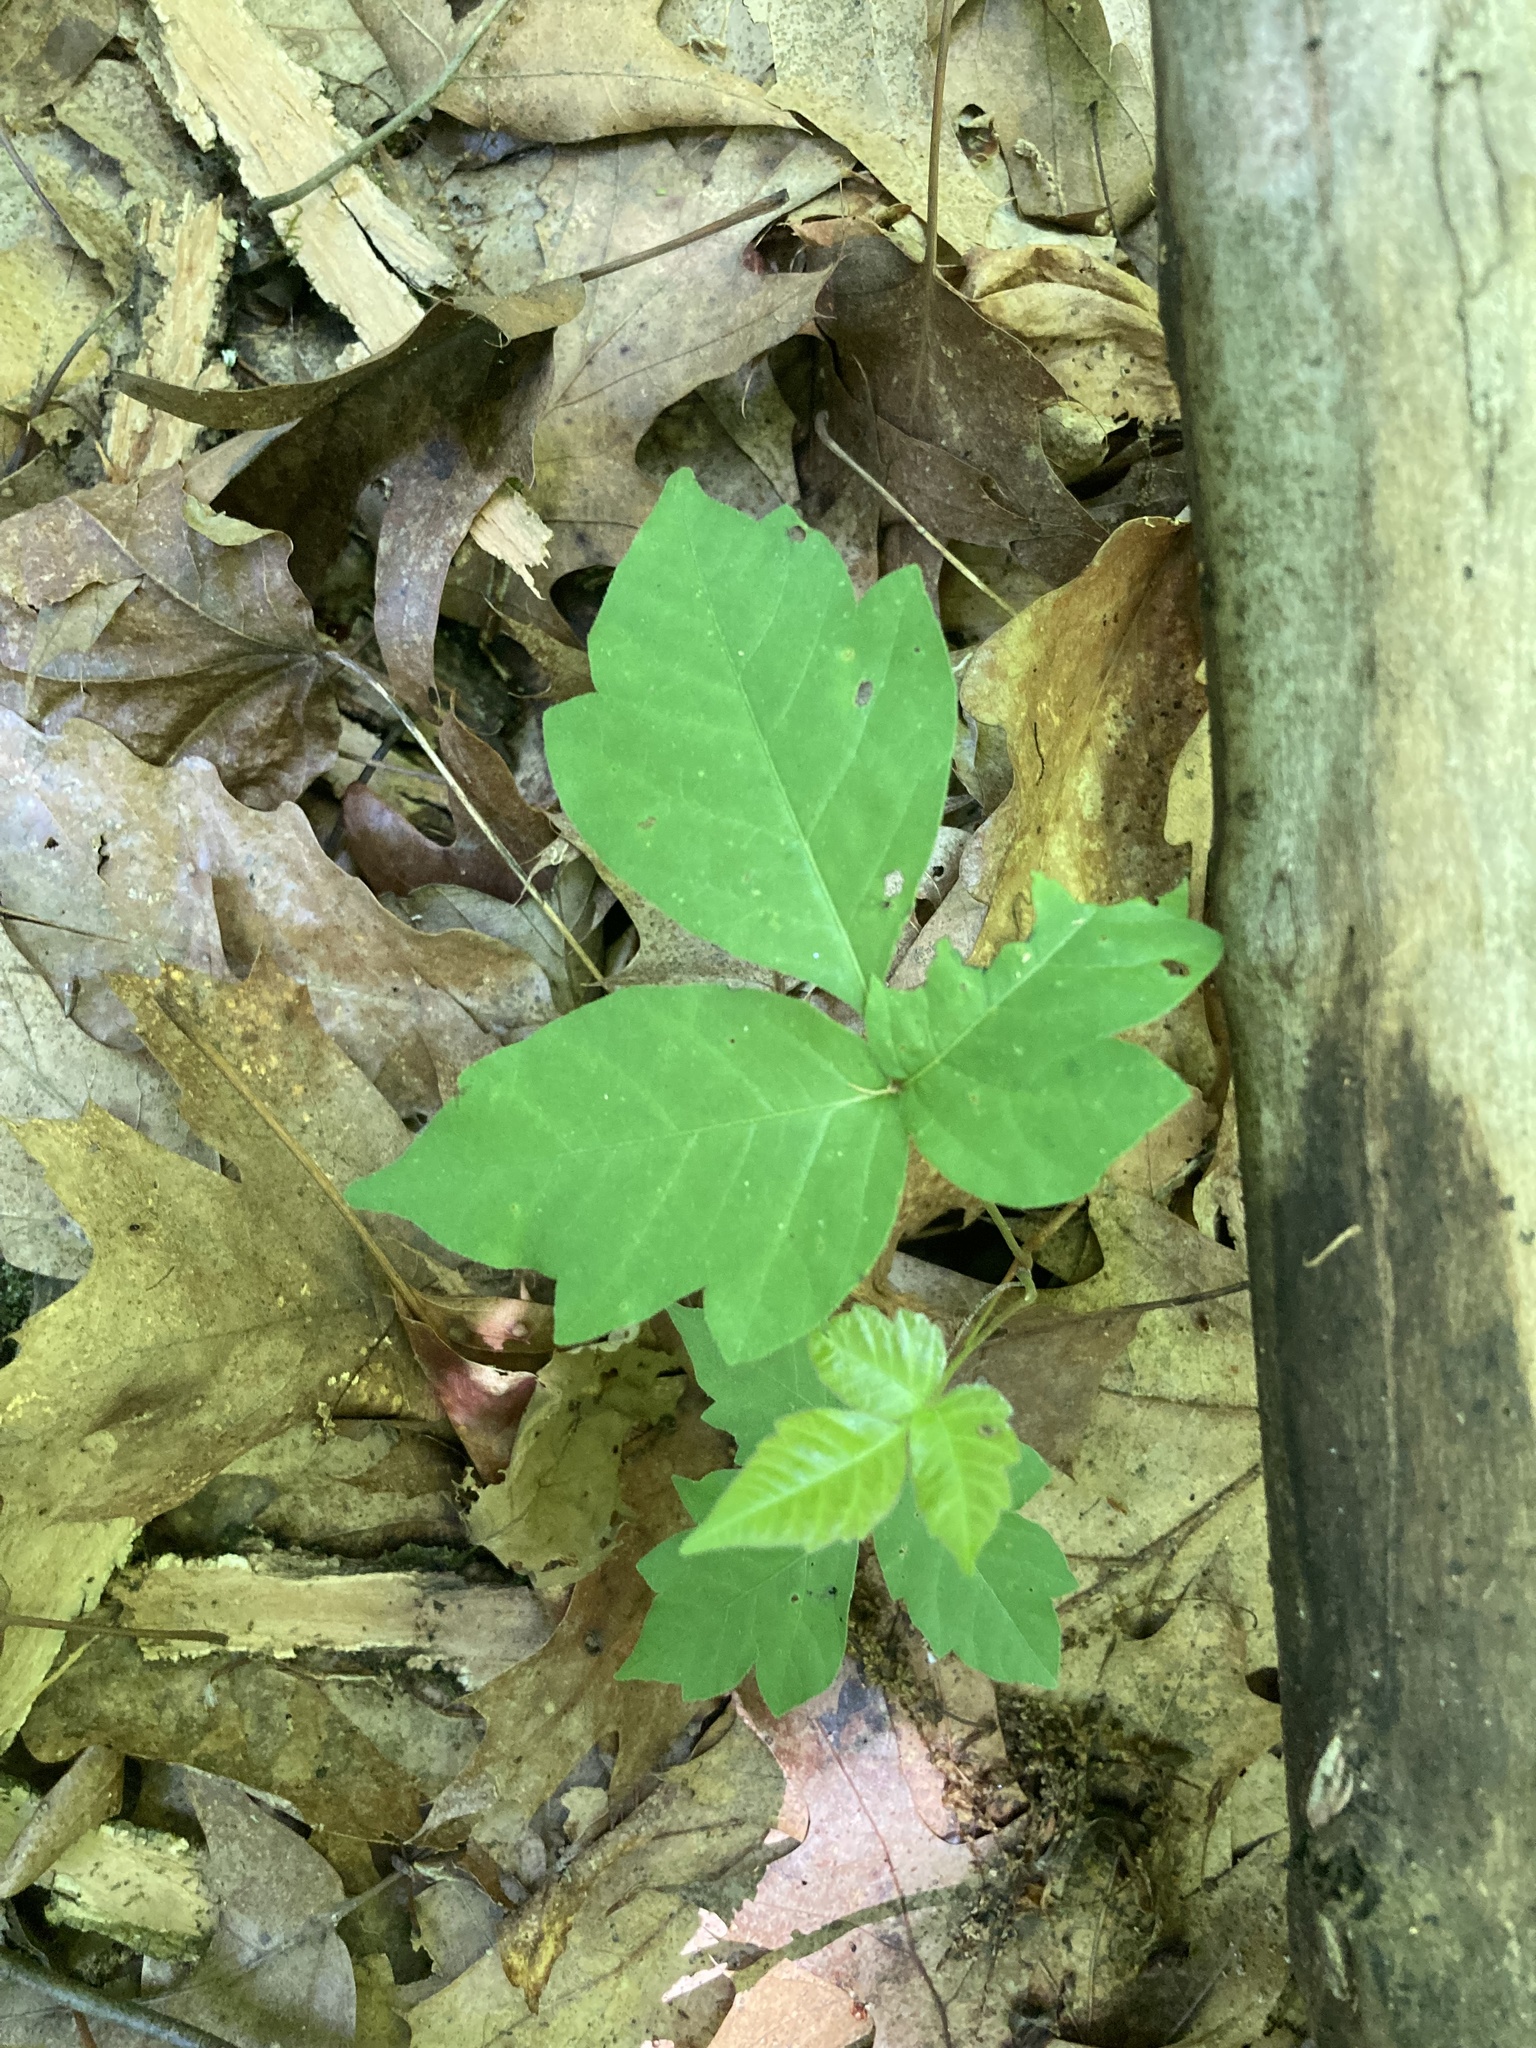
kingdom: Plantae
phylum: Tracheophyta
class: Magnoliopsida
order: Sapindales
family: Anacardiaceae
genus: Toxicodendron
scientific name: Toxicodendron radicans
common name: Poison ivy
